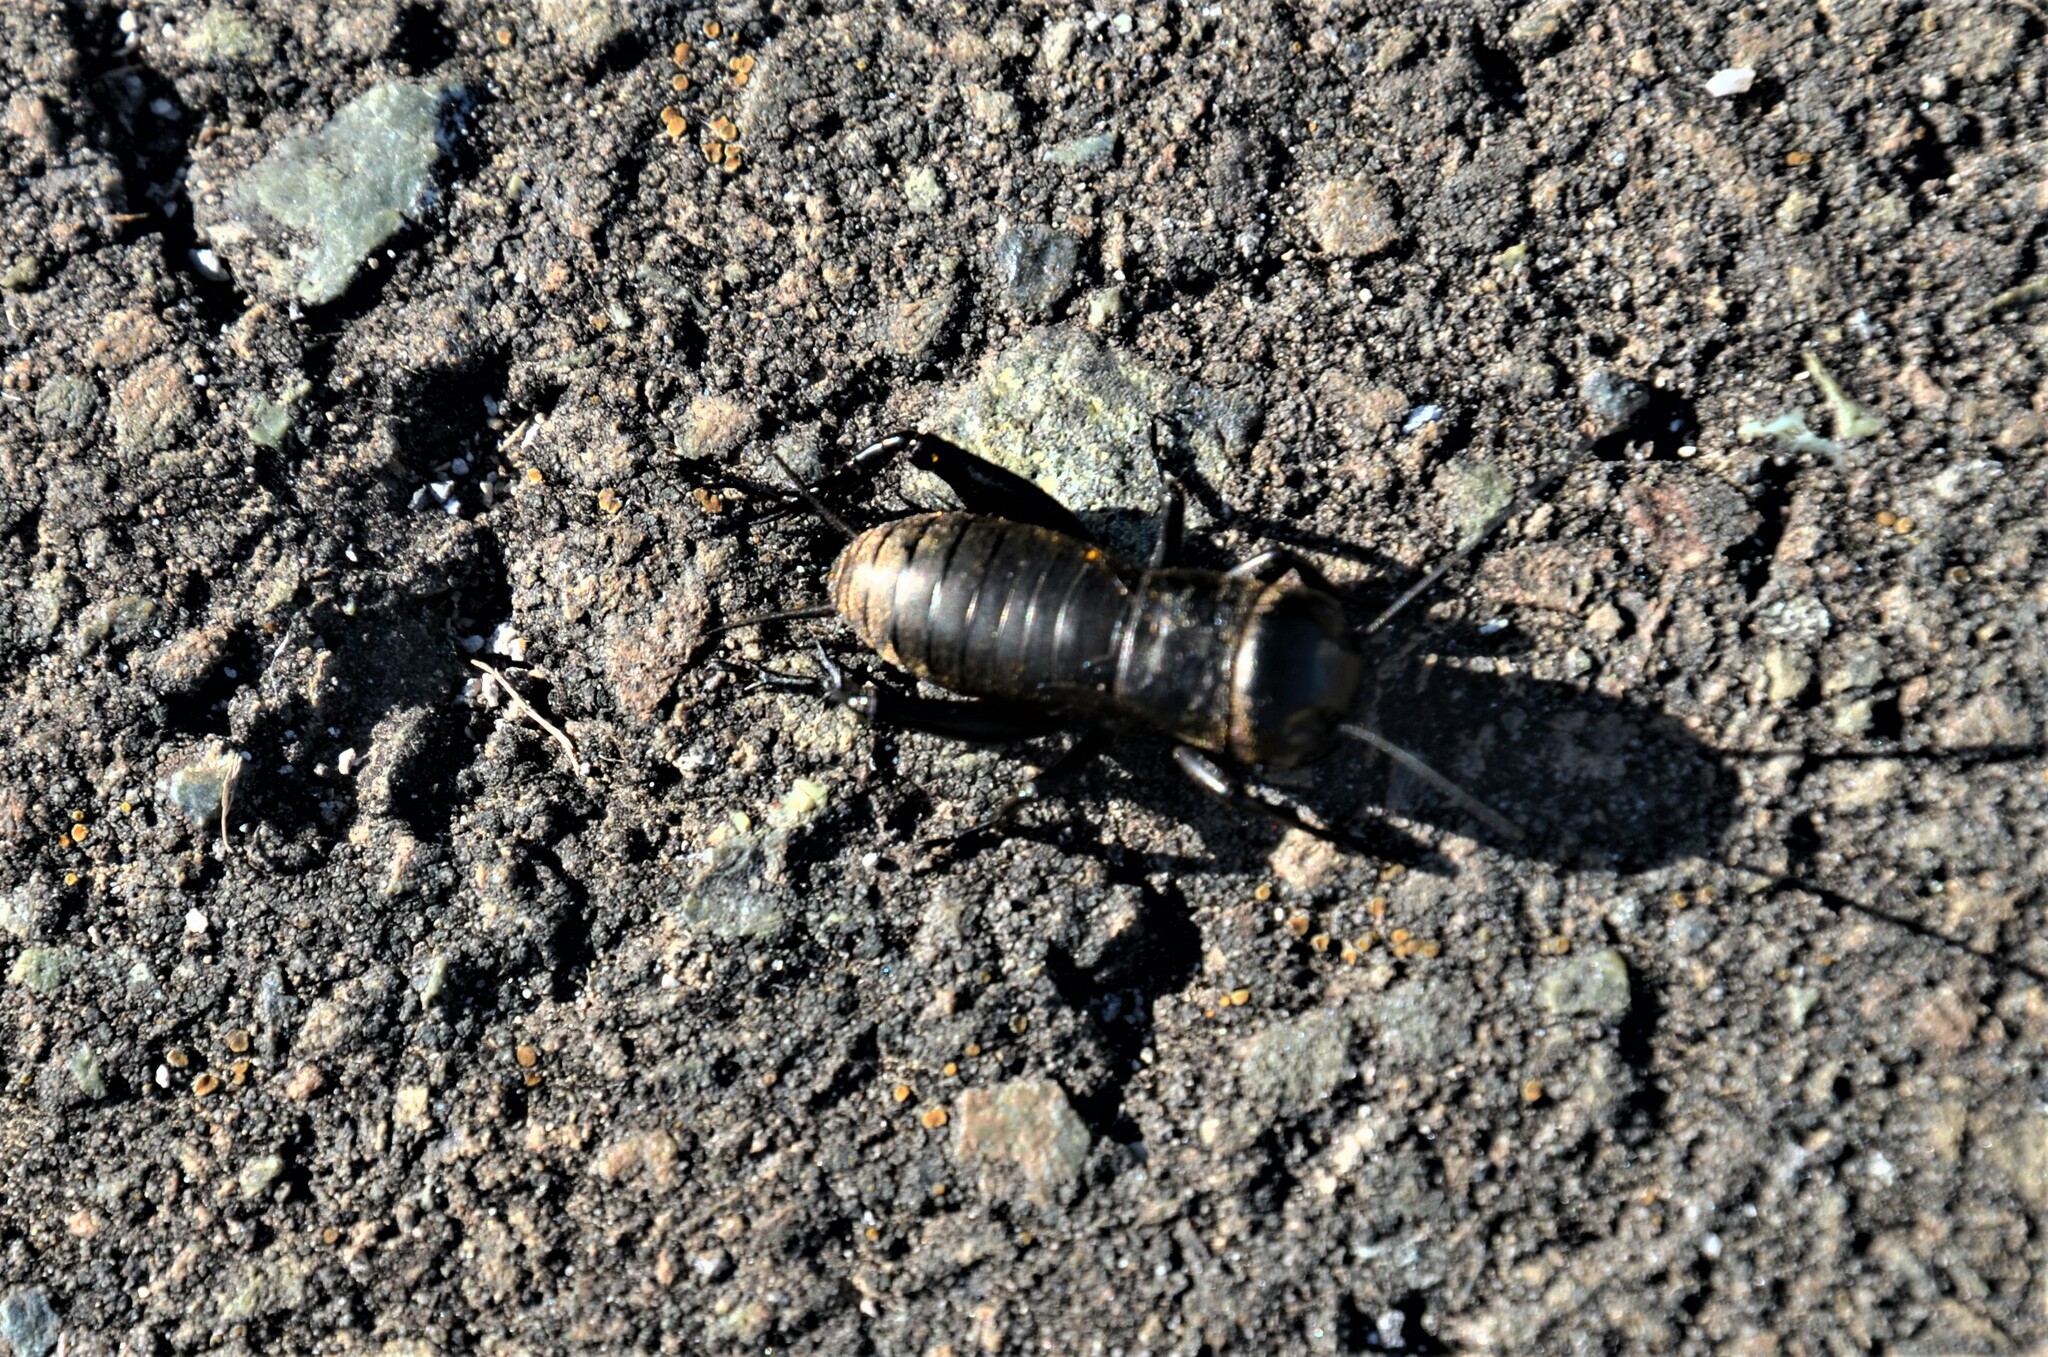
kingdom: Animalia
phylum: Arthropoda
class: Insecta
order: Orthoptera
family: Gryllidae
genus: Gryllus
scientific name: Gryllus campestris
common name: Field cricket
